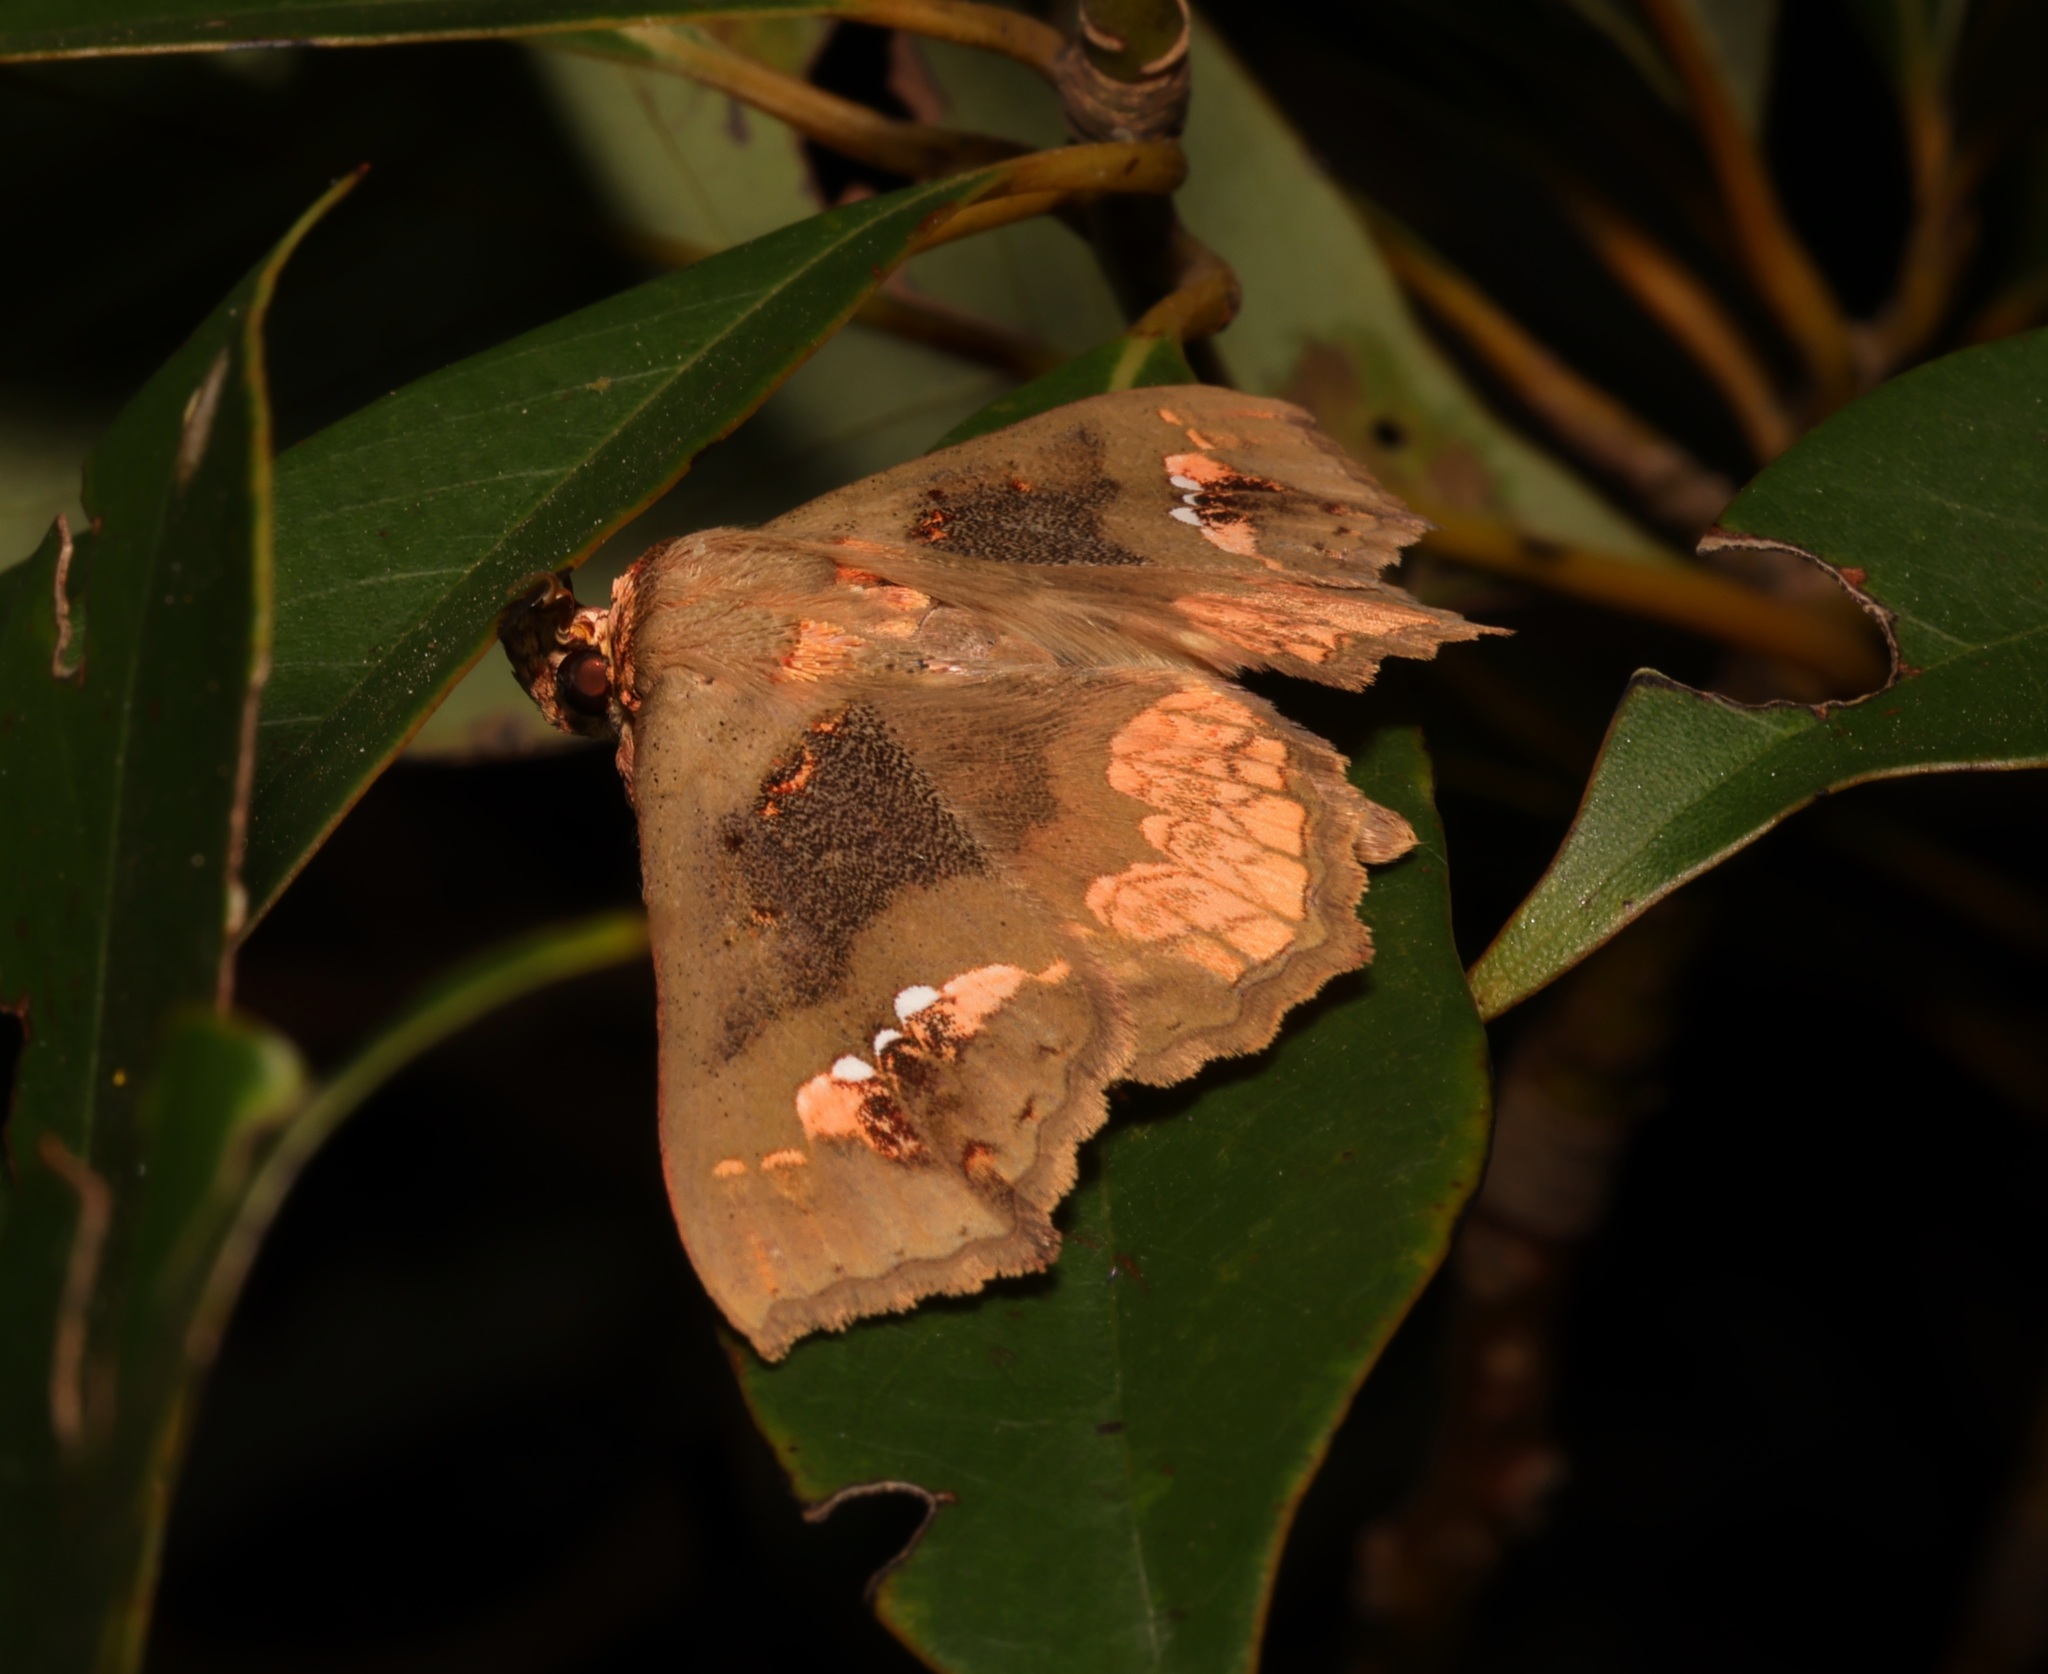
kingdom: Animalia
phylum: Arthropoda
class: Insecta
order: Lepidoptera
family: Erebidae
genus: Lopharthrum
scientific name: Lopharthrum comprimens
